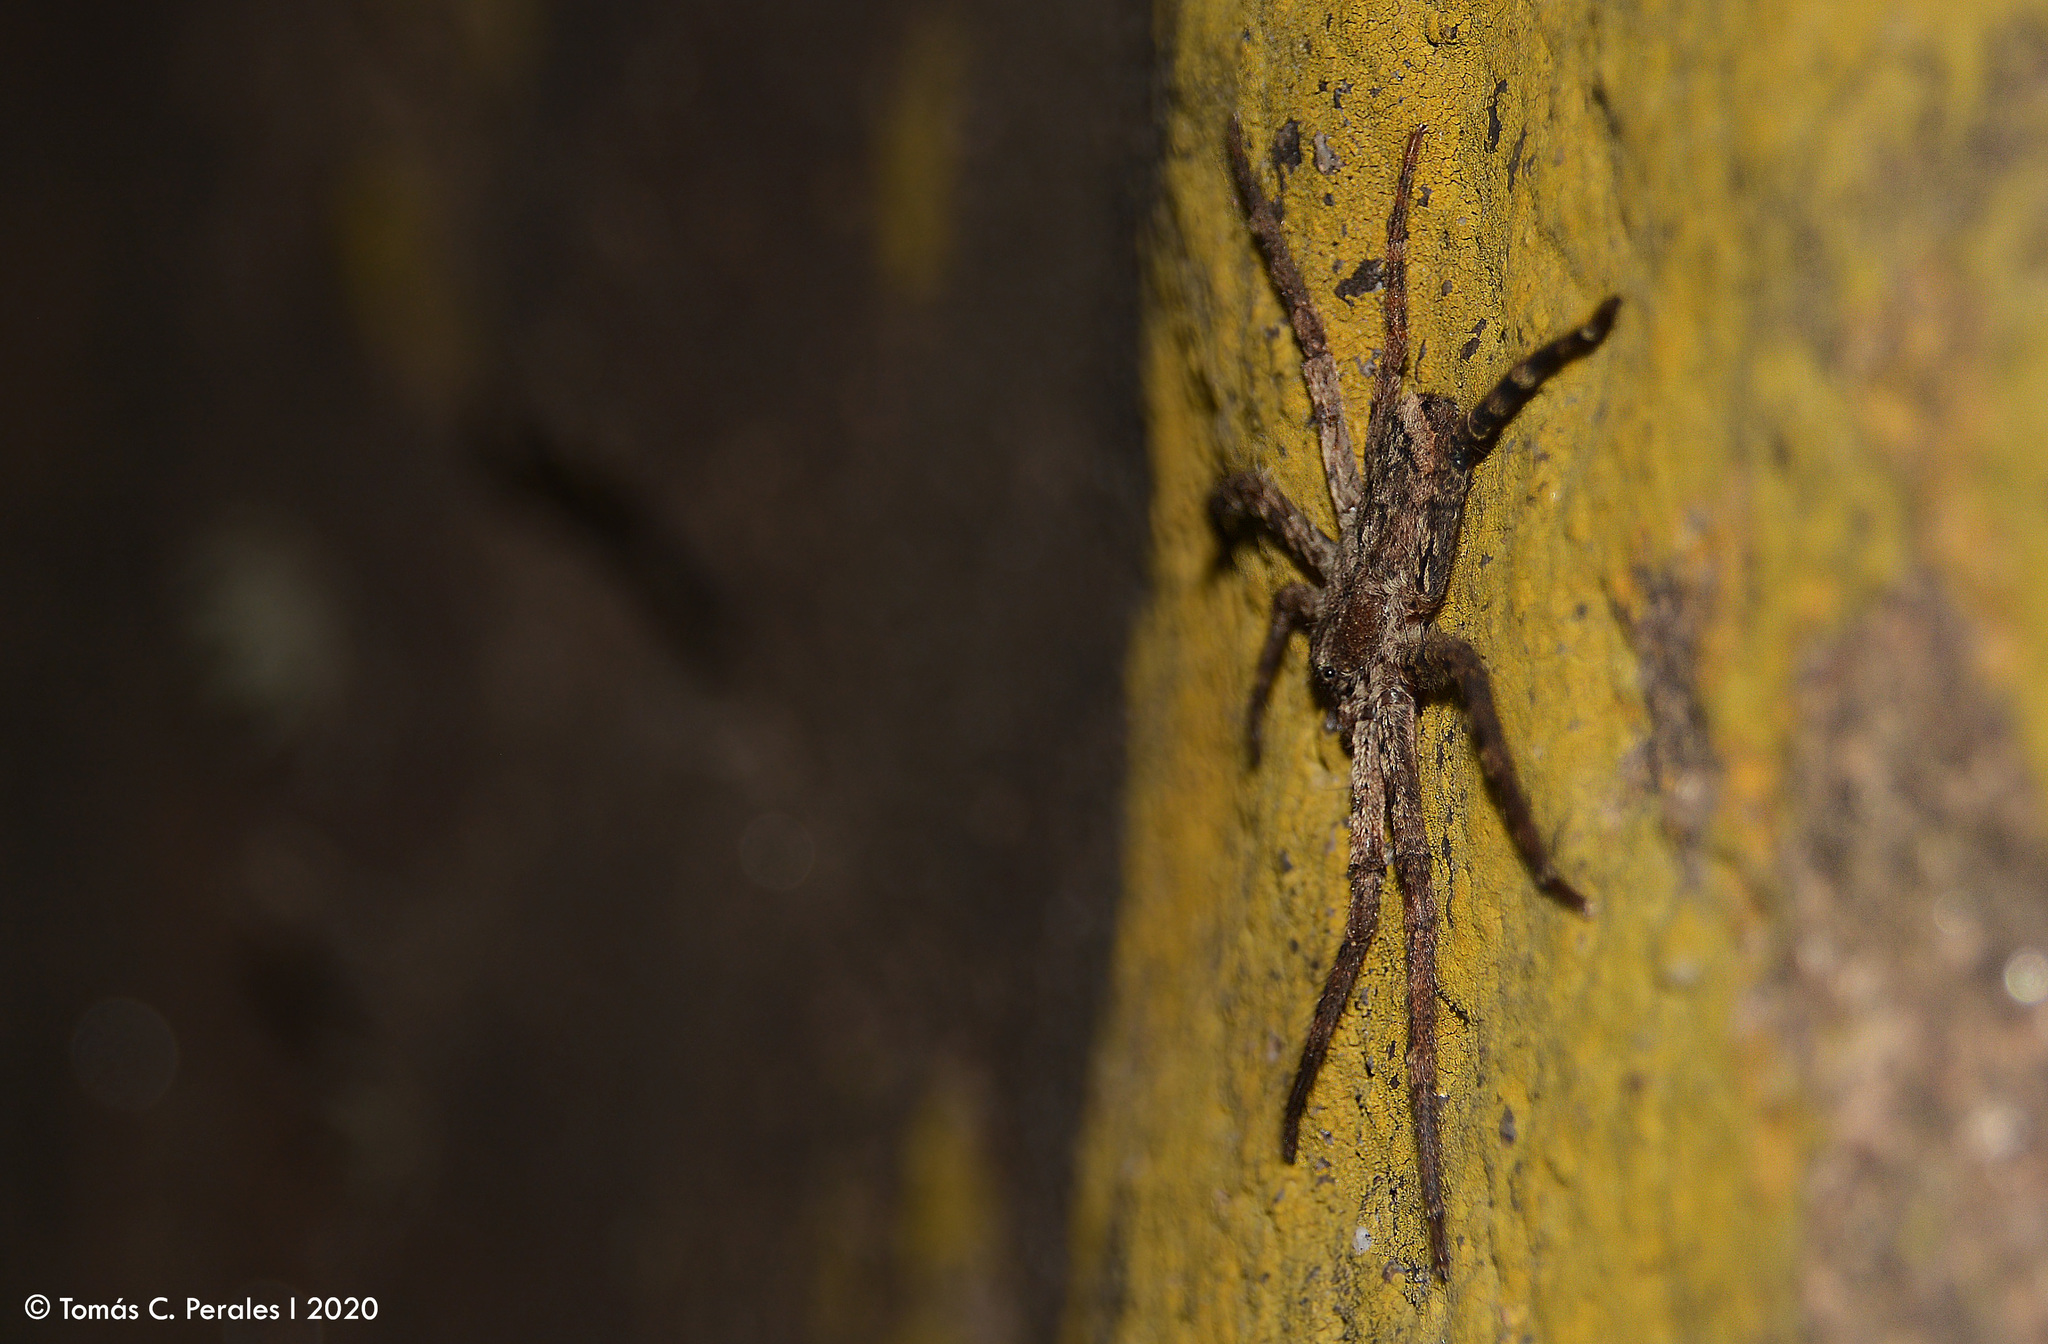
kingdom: Animalia
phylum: Arthropoda
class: Arachnida
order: Araneae
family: Selenopidae
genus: Selenops
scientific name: Selenops
